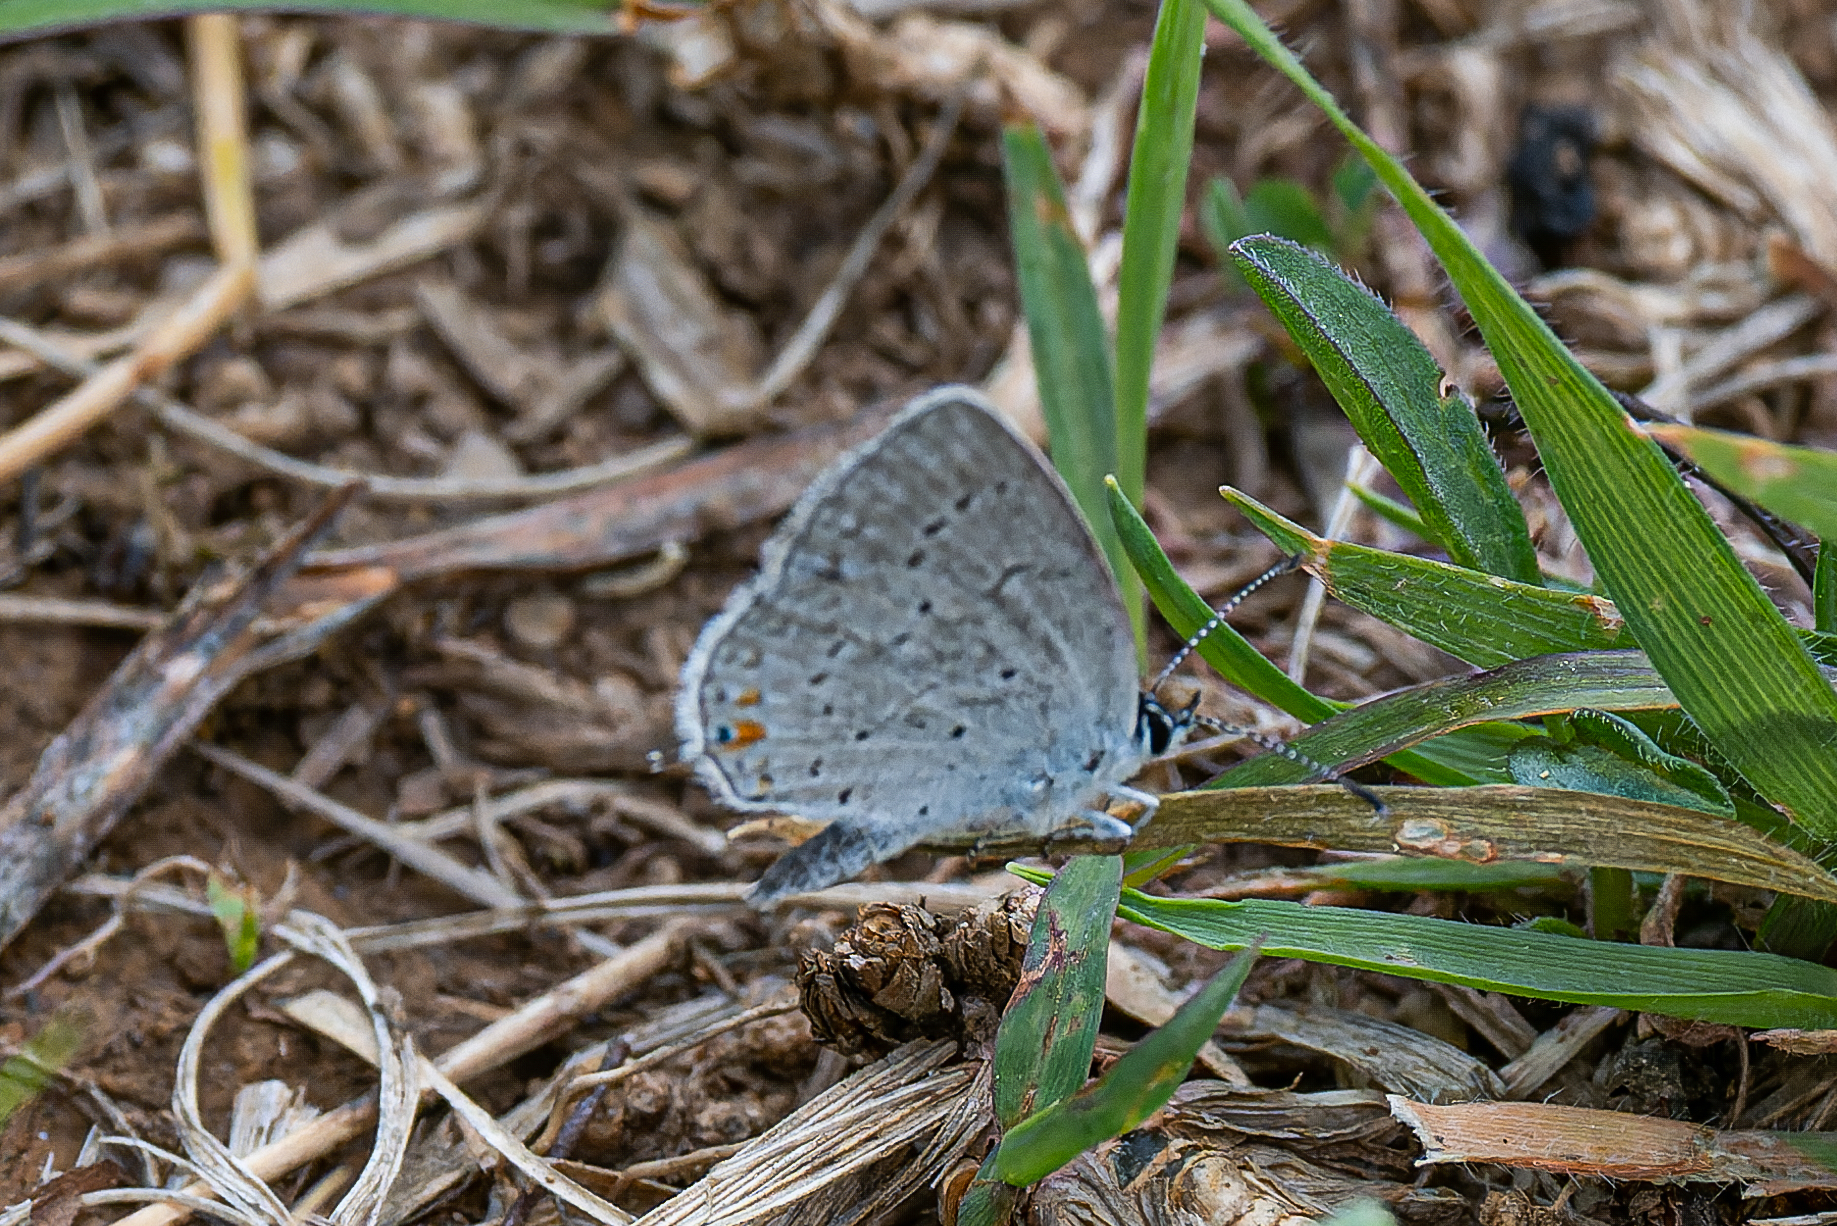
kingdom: Animalia
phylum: Arthropoda
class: Insecta
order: Lepidoptera
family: Lycaenidae
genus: Elkalyce
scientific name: Elkalyce comyntas
